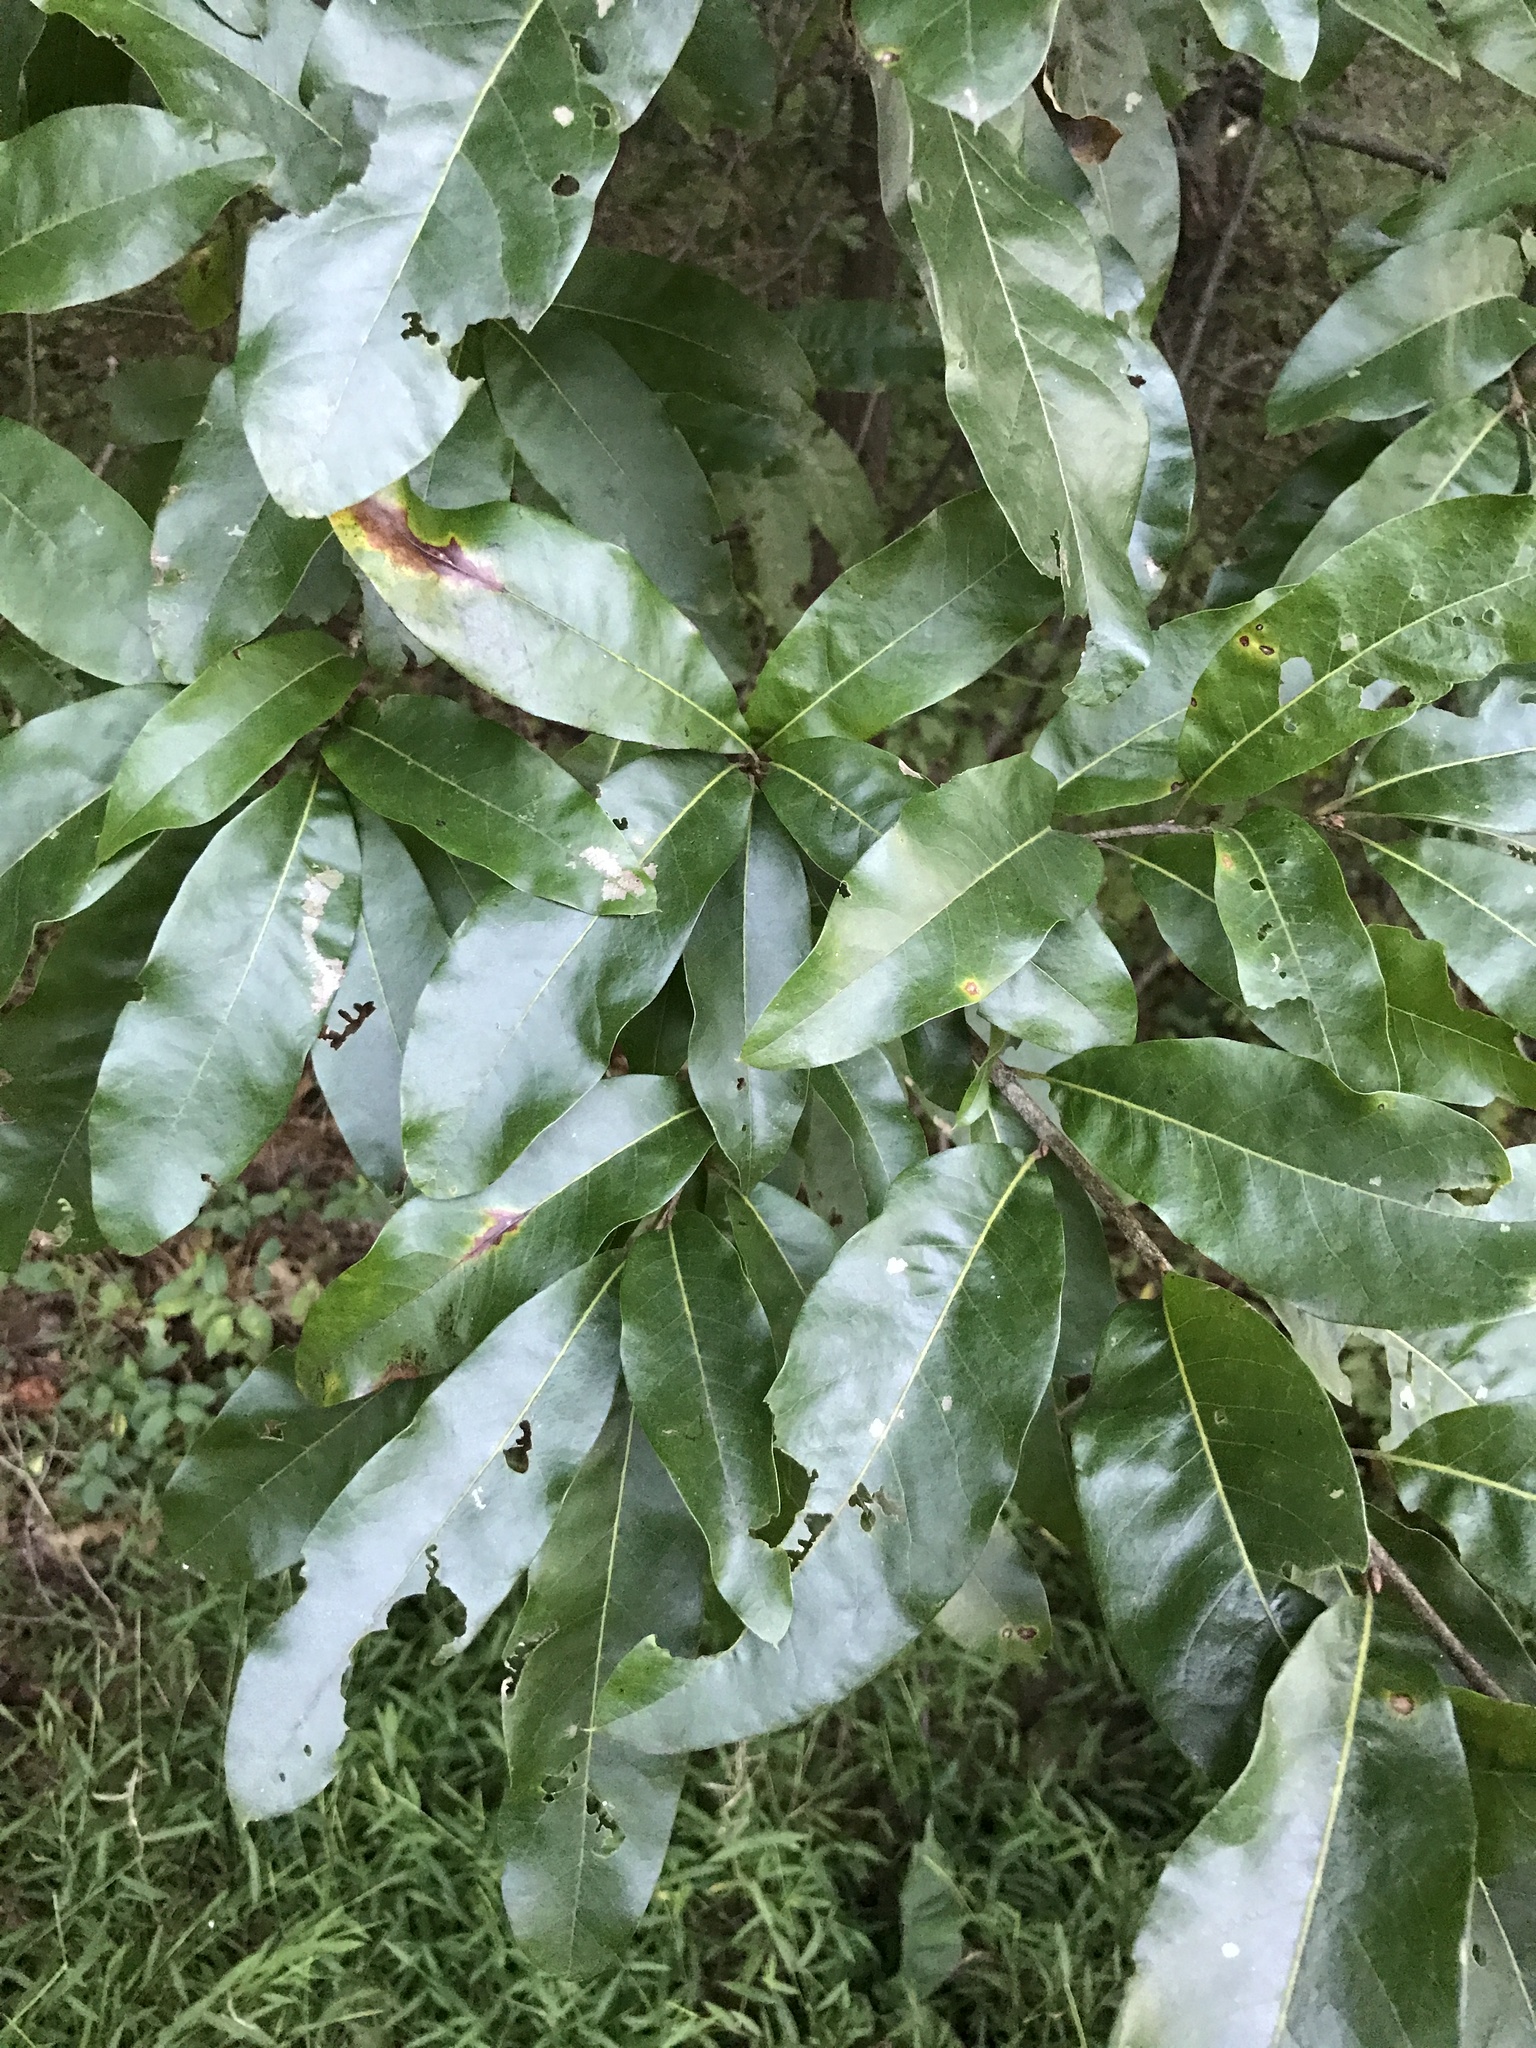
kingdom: Plantae
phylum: Tracheophyta
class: Magnoliopsida
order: Fagales
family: Fagaceae
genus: Quercus
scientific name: Quercus imbricaria
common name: Shingle oak
